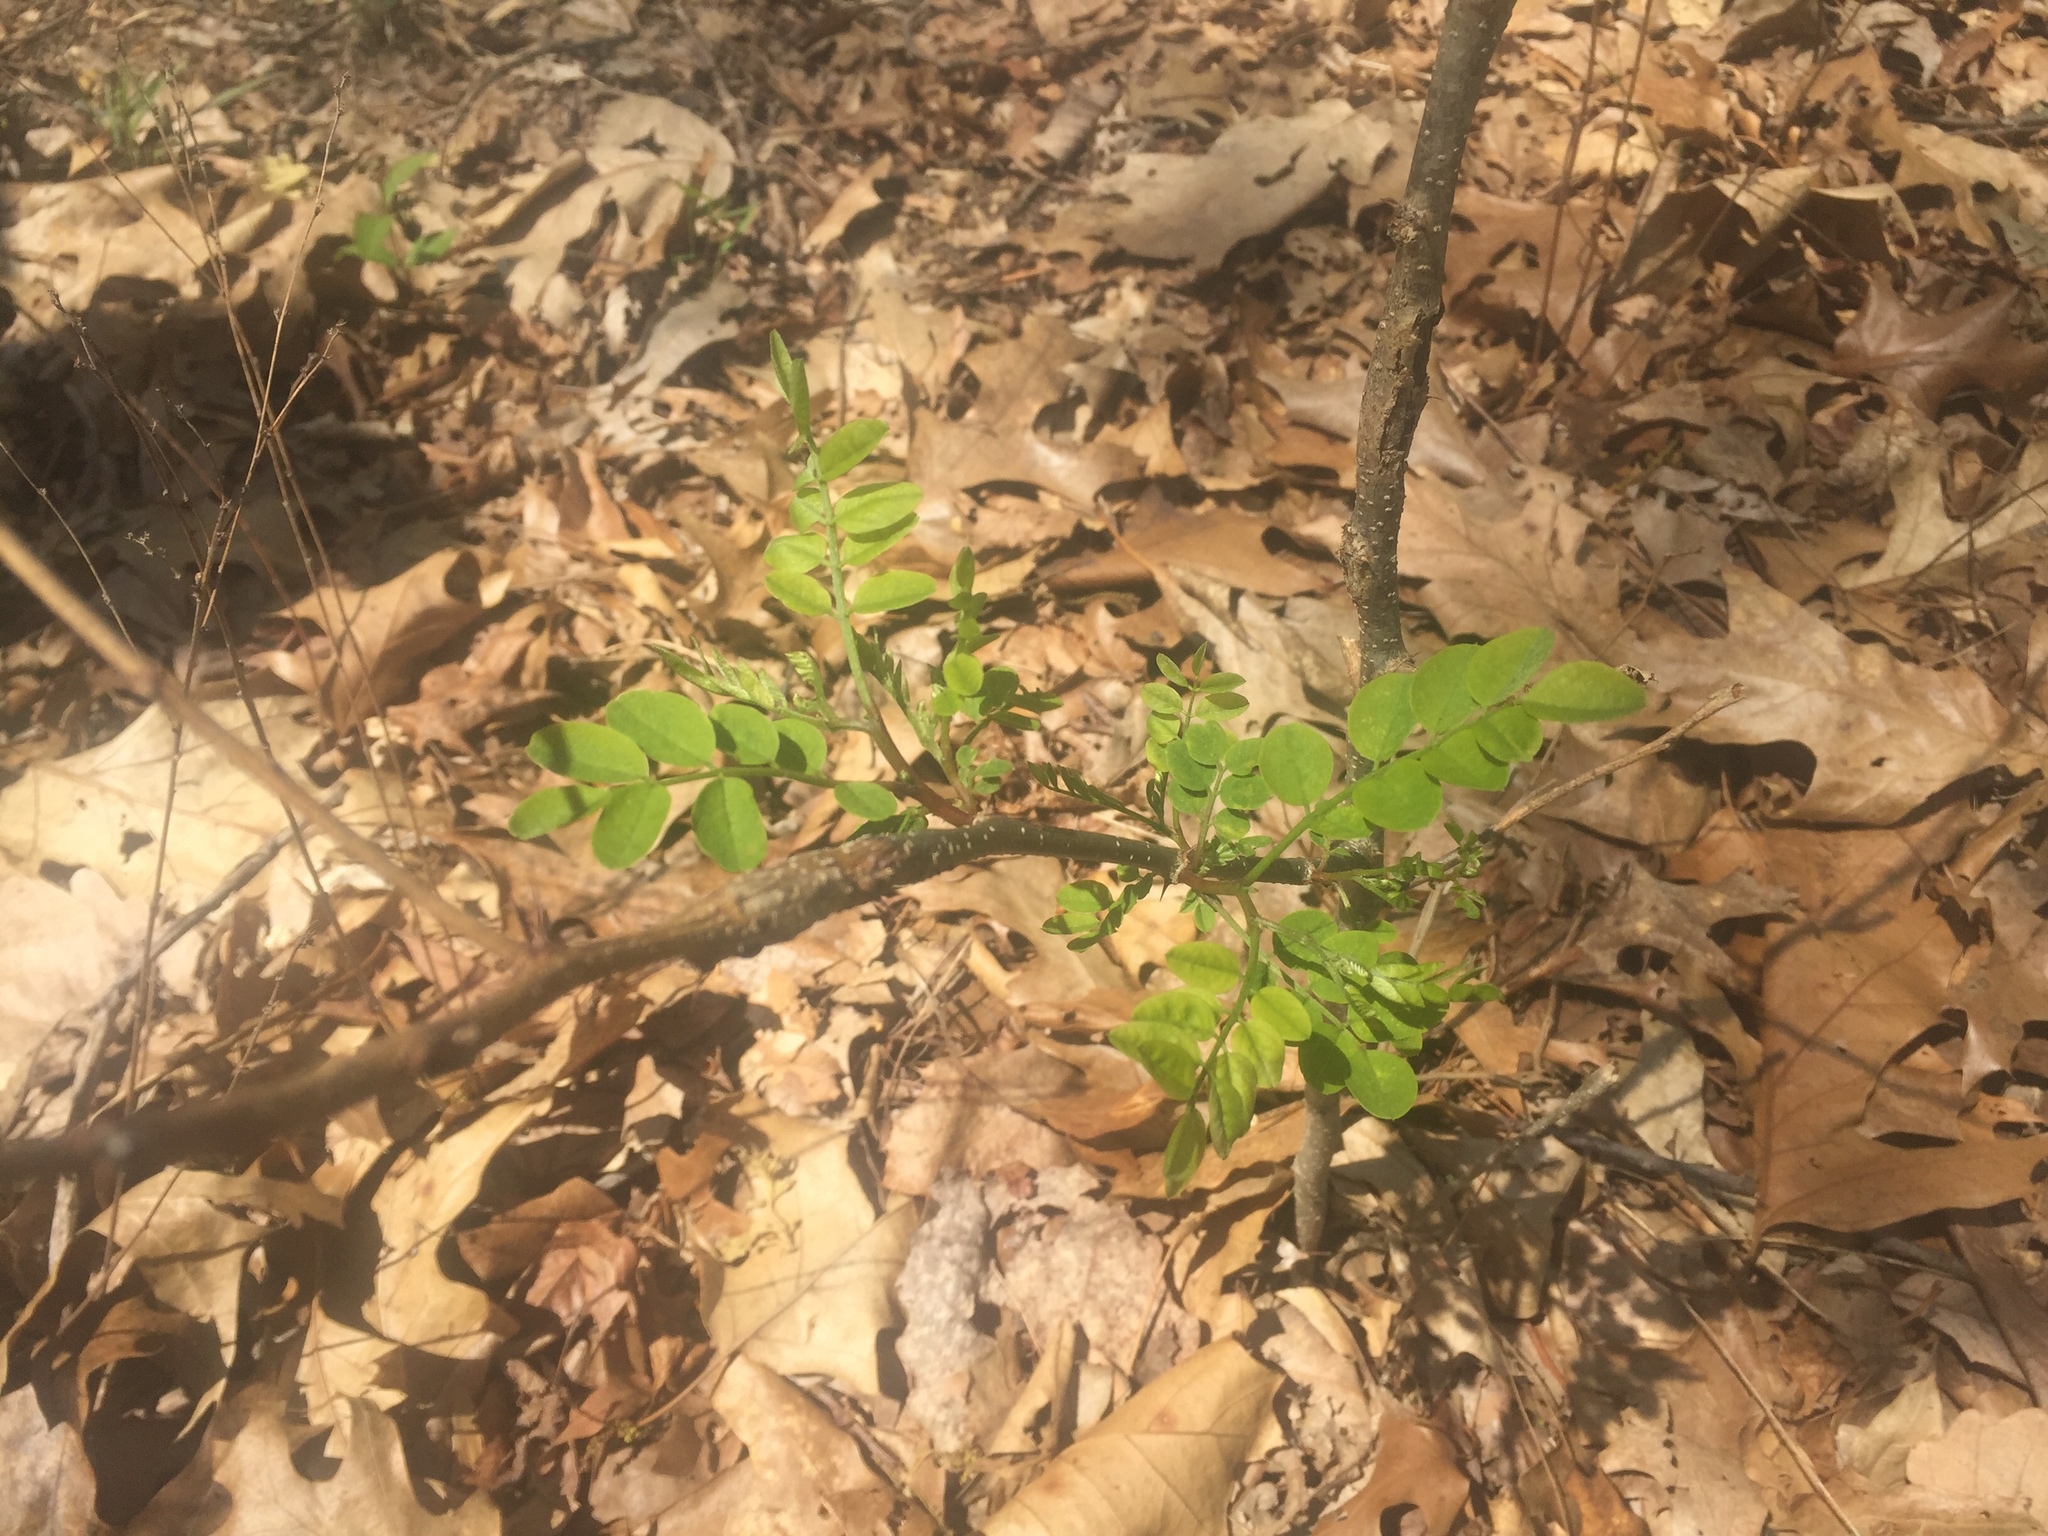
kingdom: Plantae
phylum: Tracheophyta
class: Magnoliopsida
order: Fabales
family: Fabaceae
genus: Robinia
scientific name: Robinia pseudoacacia
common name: Black locust
